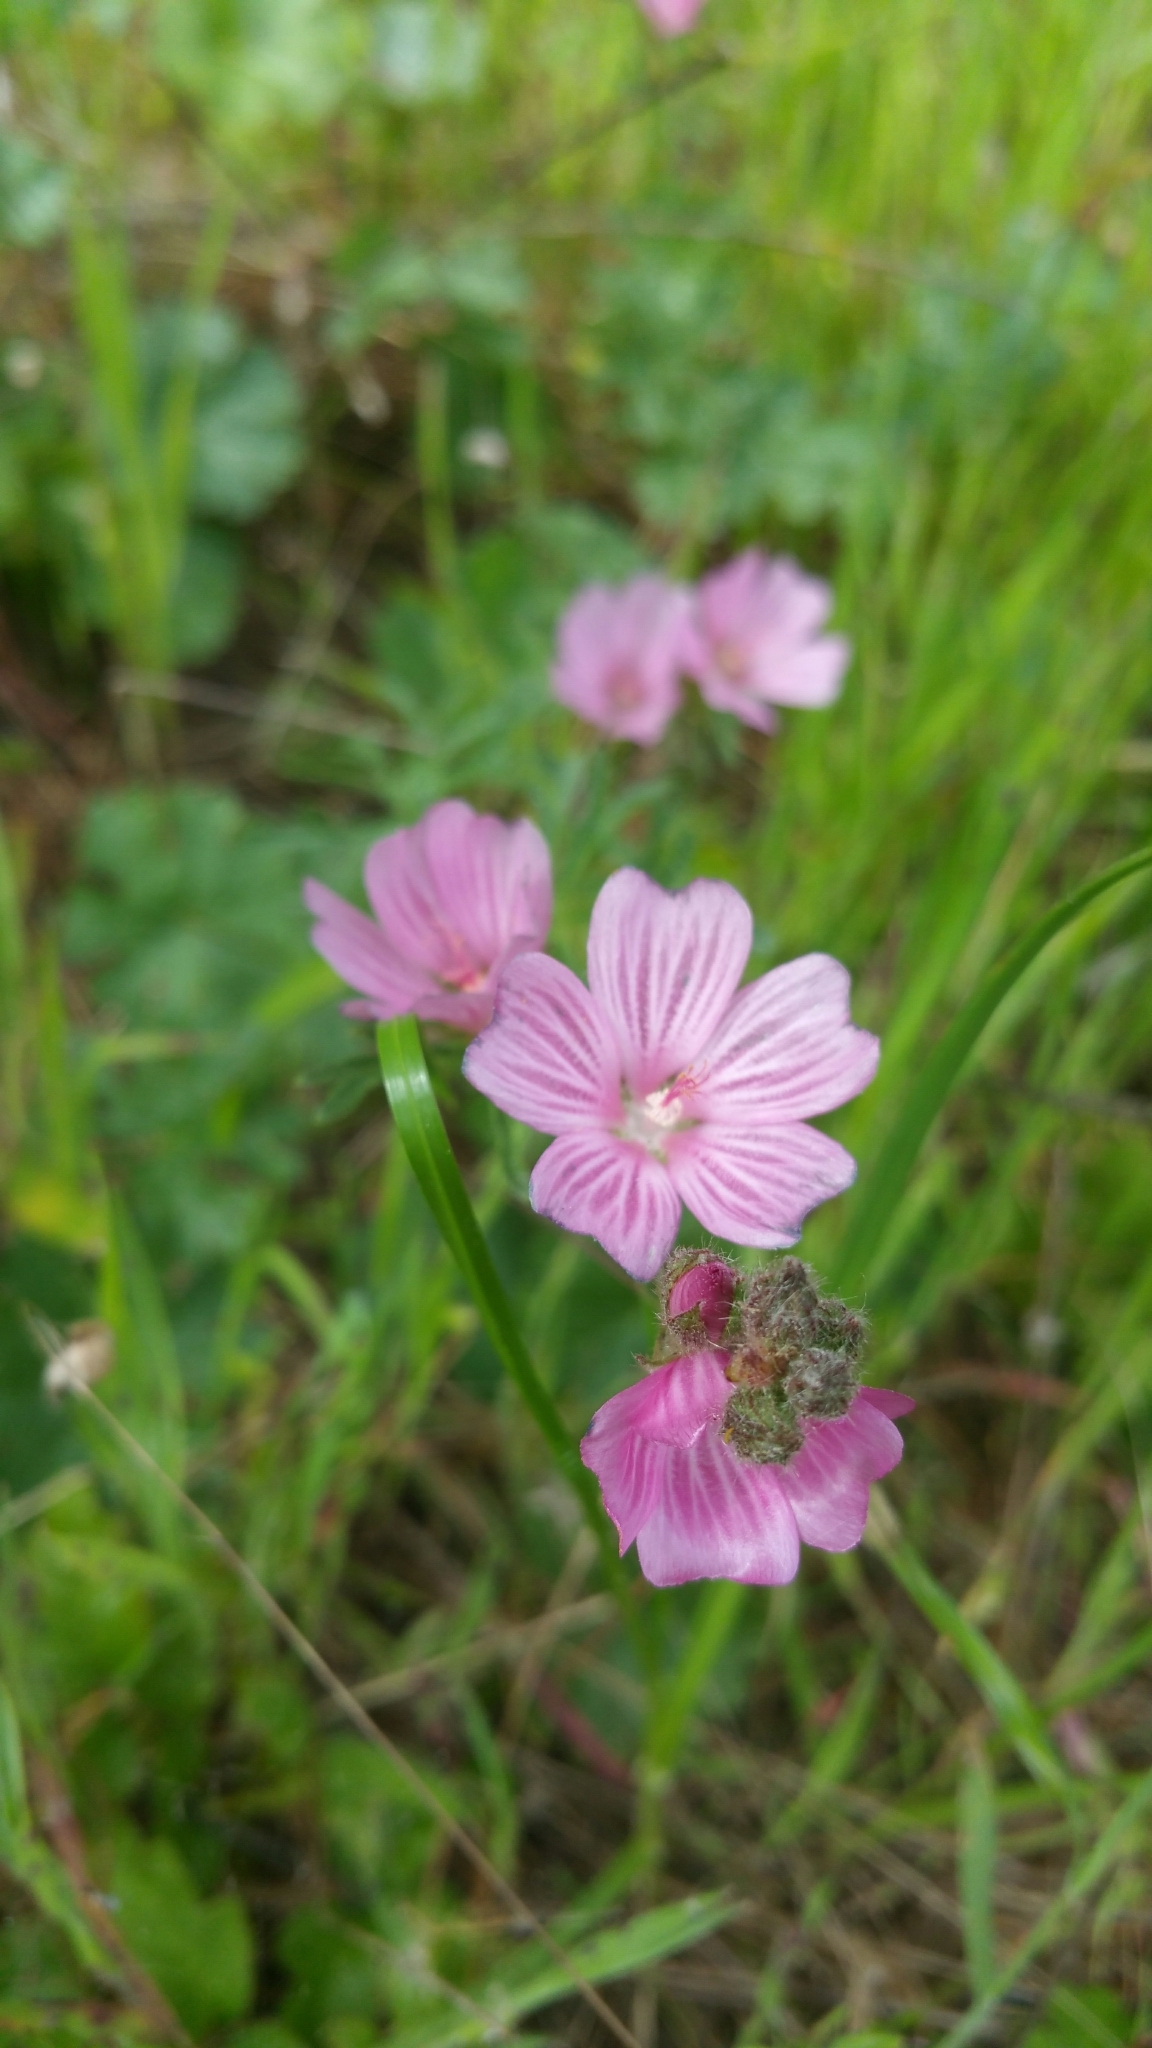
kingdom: Plantae
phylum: Tracheophyta
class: Magnoliopsida
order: Malvales
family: Malvaceae
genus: Sidalcea
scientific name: Sidalcea malviflora
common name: Greek mallow
